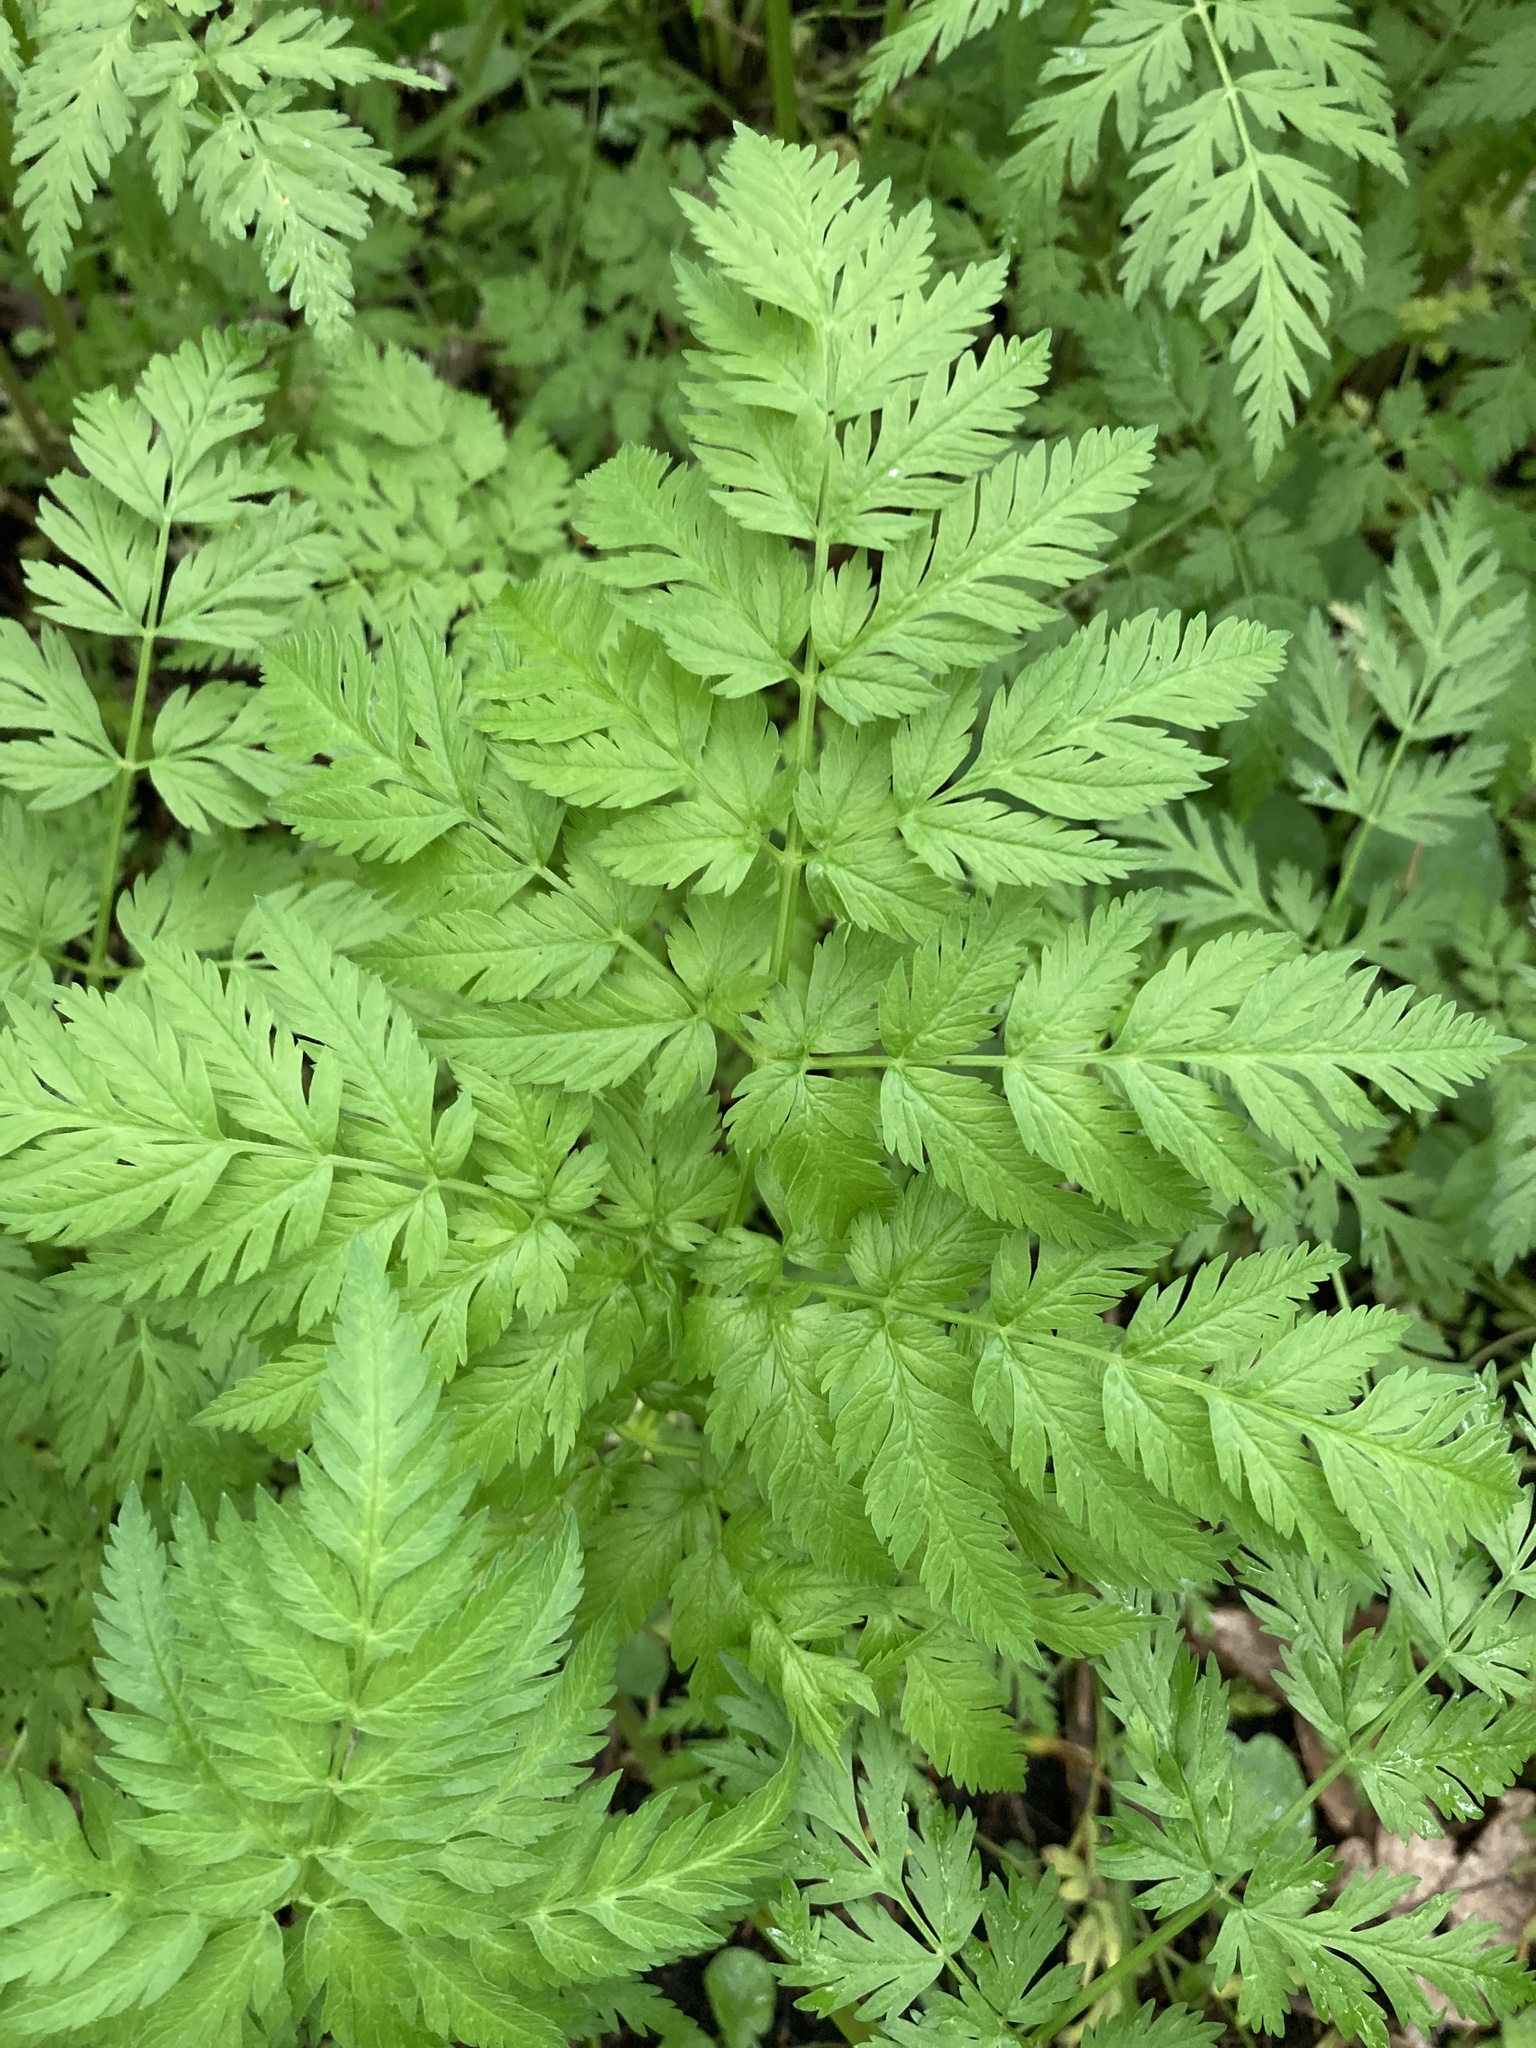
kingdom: Plantae
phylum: Tracheophyta
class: Magnoliopsida
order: Apiales
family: Apiaceae
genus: Anthriscus
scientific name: Anthriscus sylvestris
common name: Cow parsley
